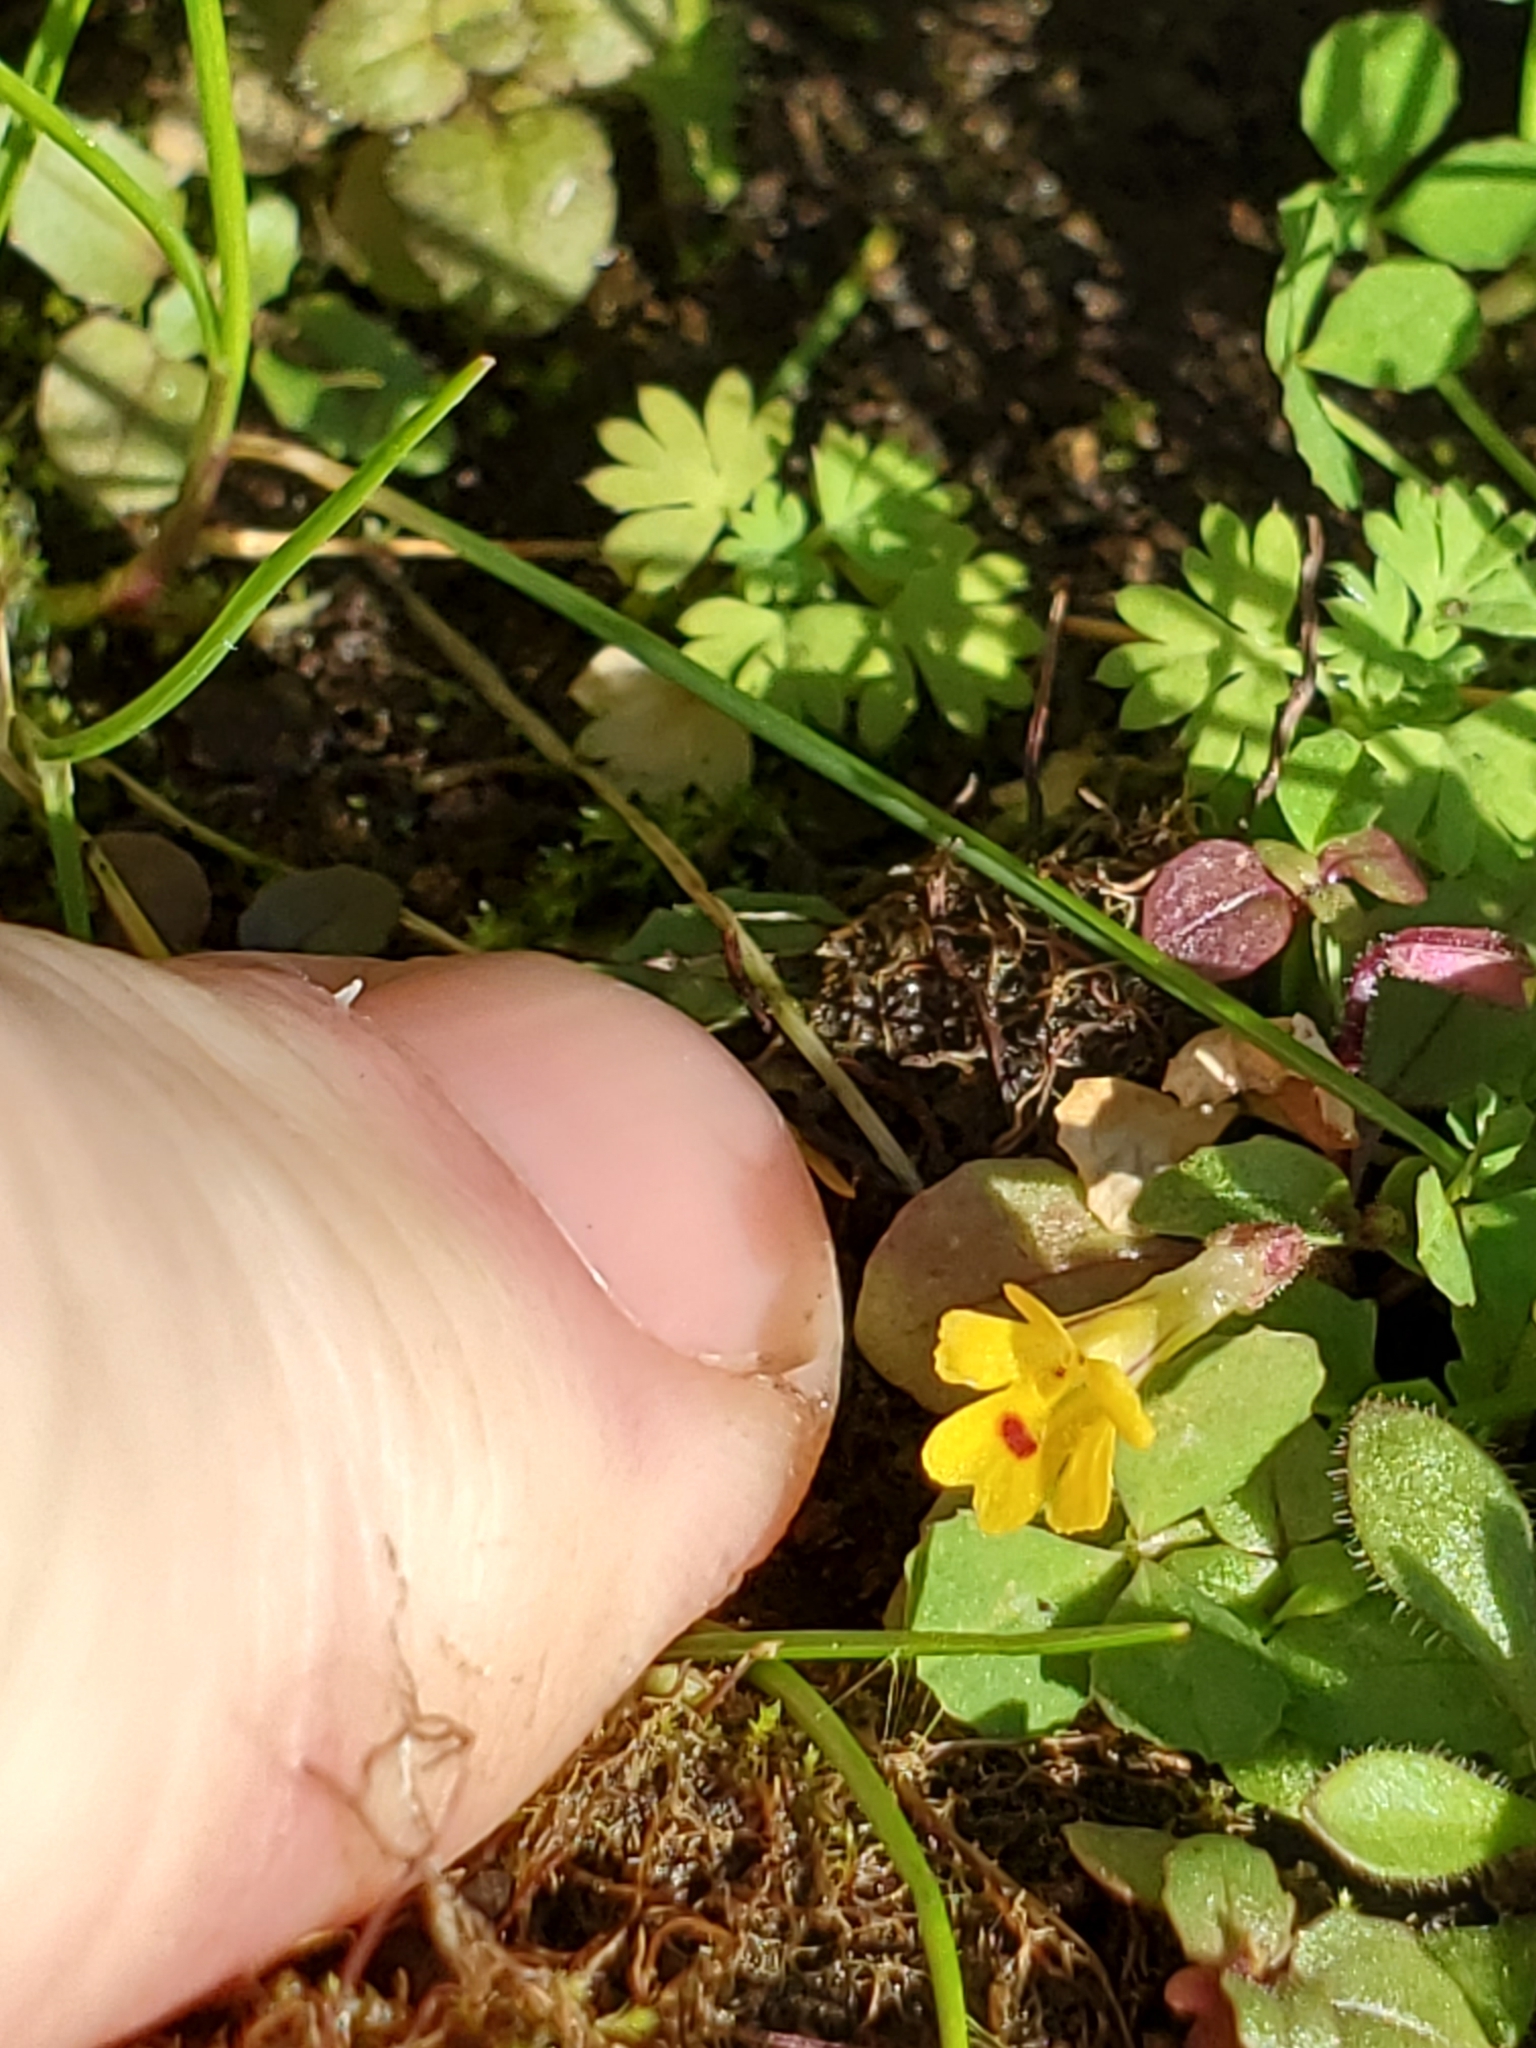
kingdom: Plantae
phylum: Tracheophyta
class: Magnoliopsida
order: Lamiales
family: Phrymaceae
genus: Erythranthe
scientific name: Erythranthe alsinoides
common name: Chickweed monkeyflower
